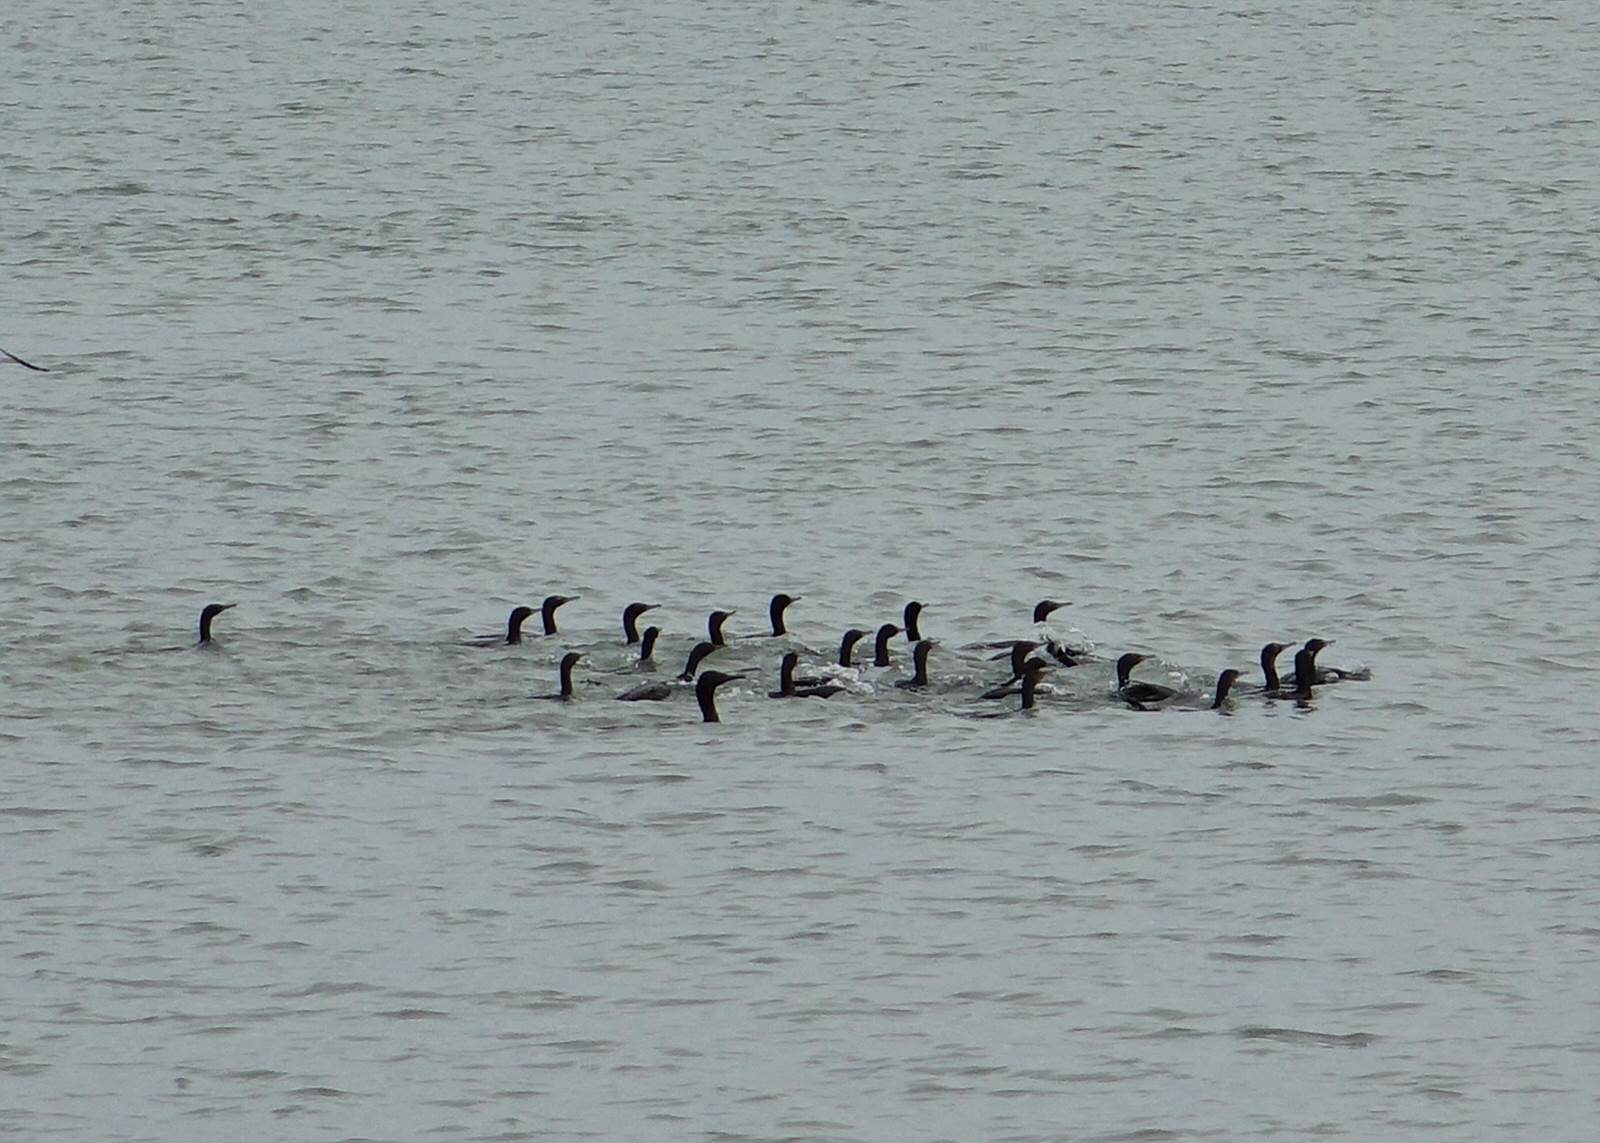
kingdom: Animalia
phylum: Chordata
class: Aves
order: Suliformes
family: Phalacrocoracidae
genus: Phalacrocorax
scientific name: Phalacrocorax sulcirostris
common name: Little black cormorant
